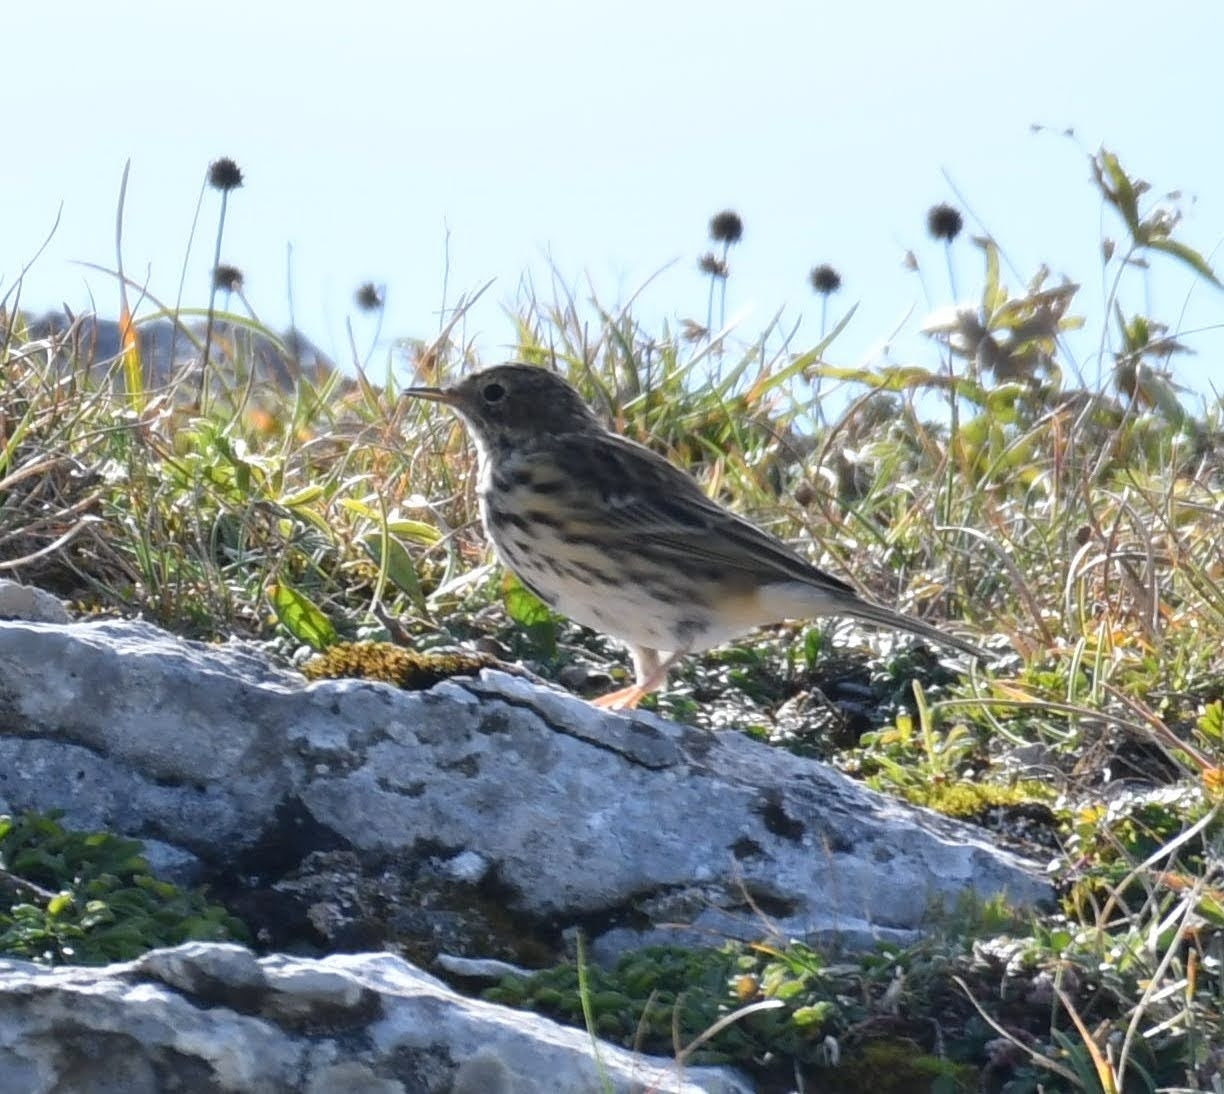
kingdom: Animalia
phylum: Chordata
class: Aves
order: Passeriformes
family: Motacillidae
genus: Anthus
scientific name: Anthus pratensis
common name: Meadow pipit
